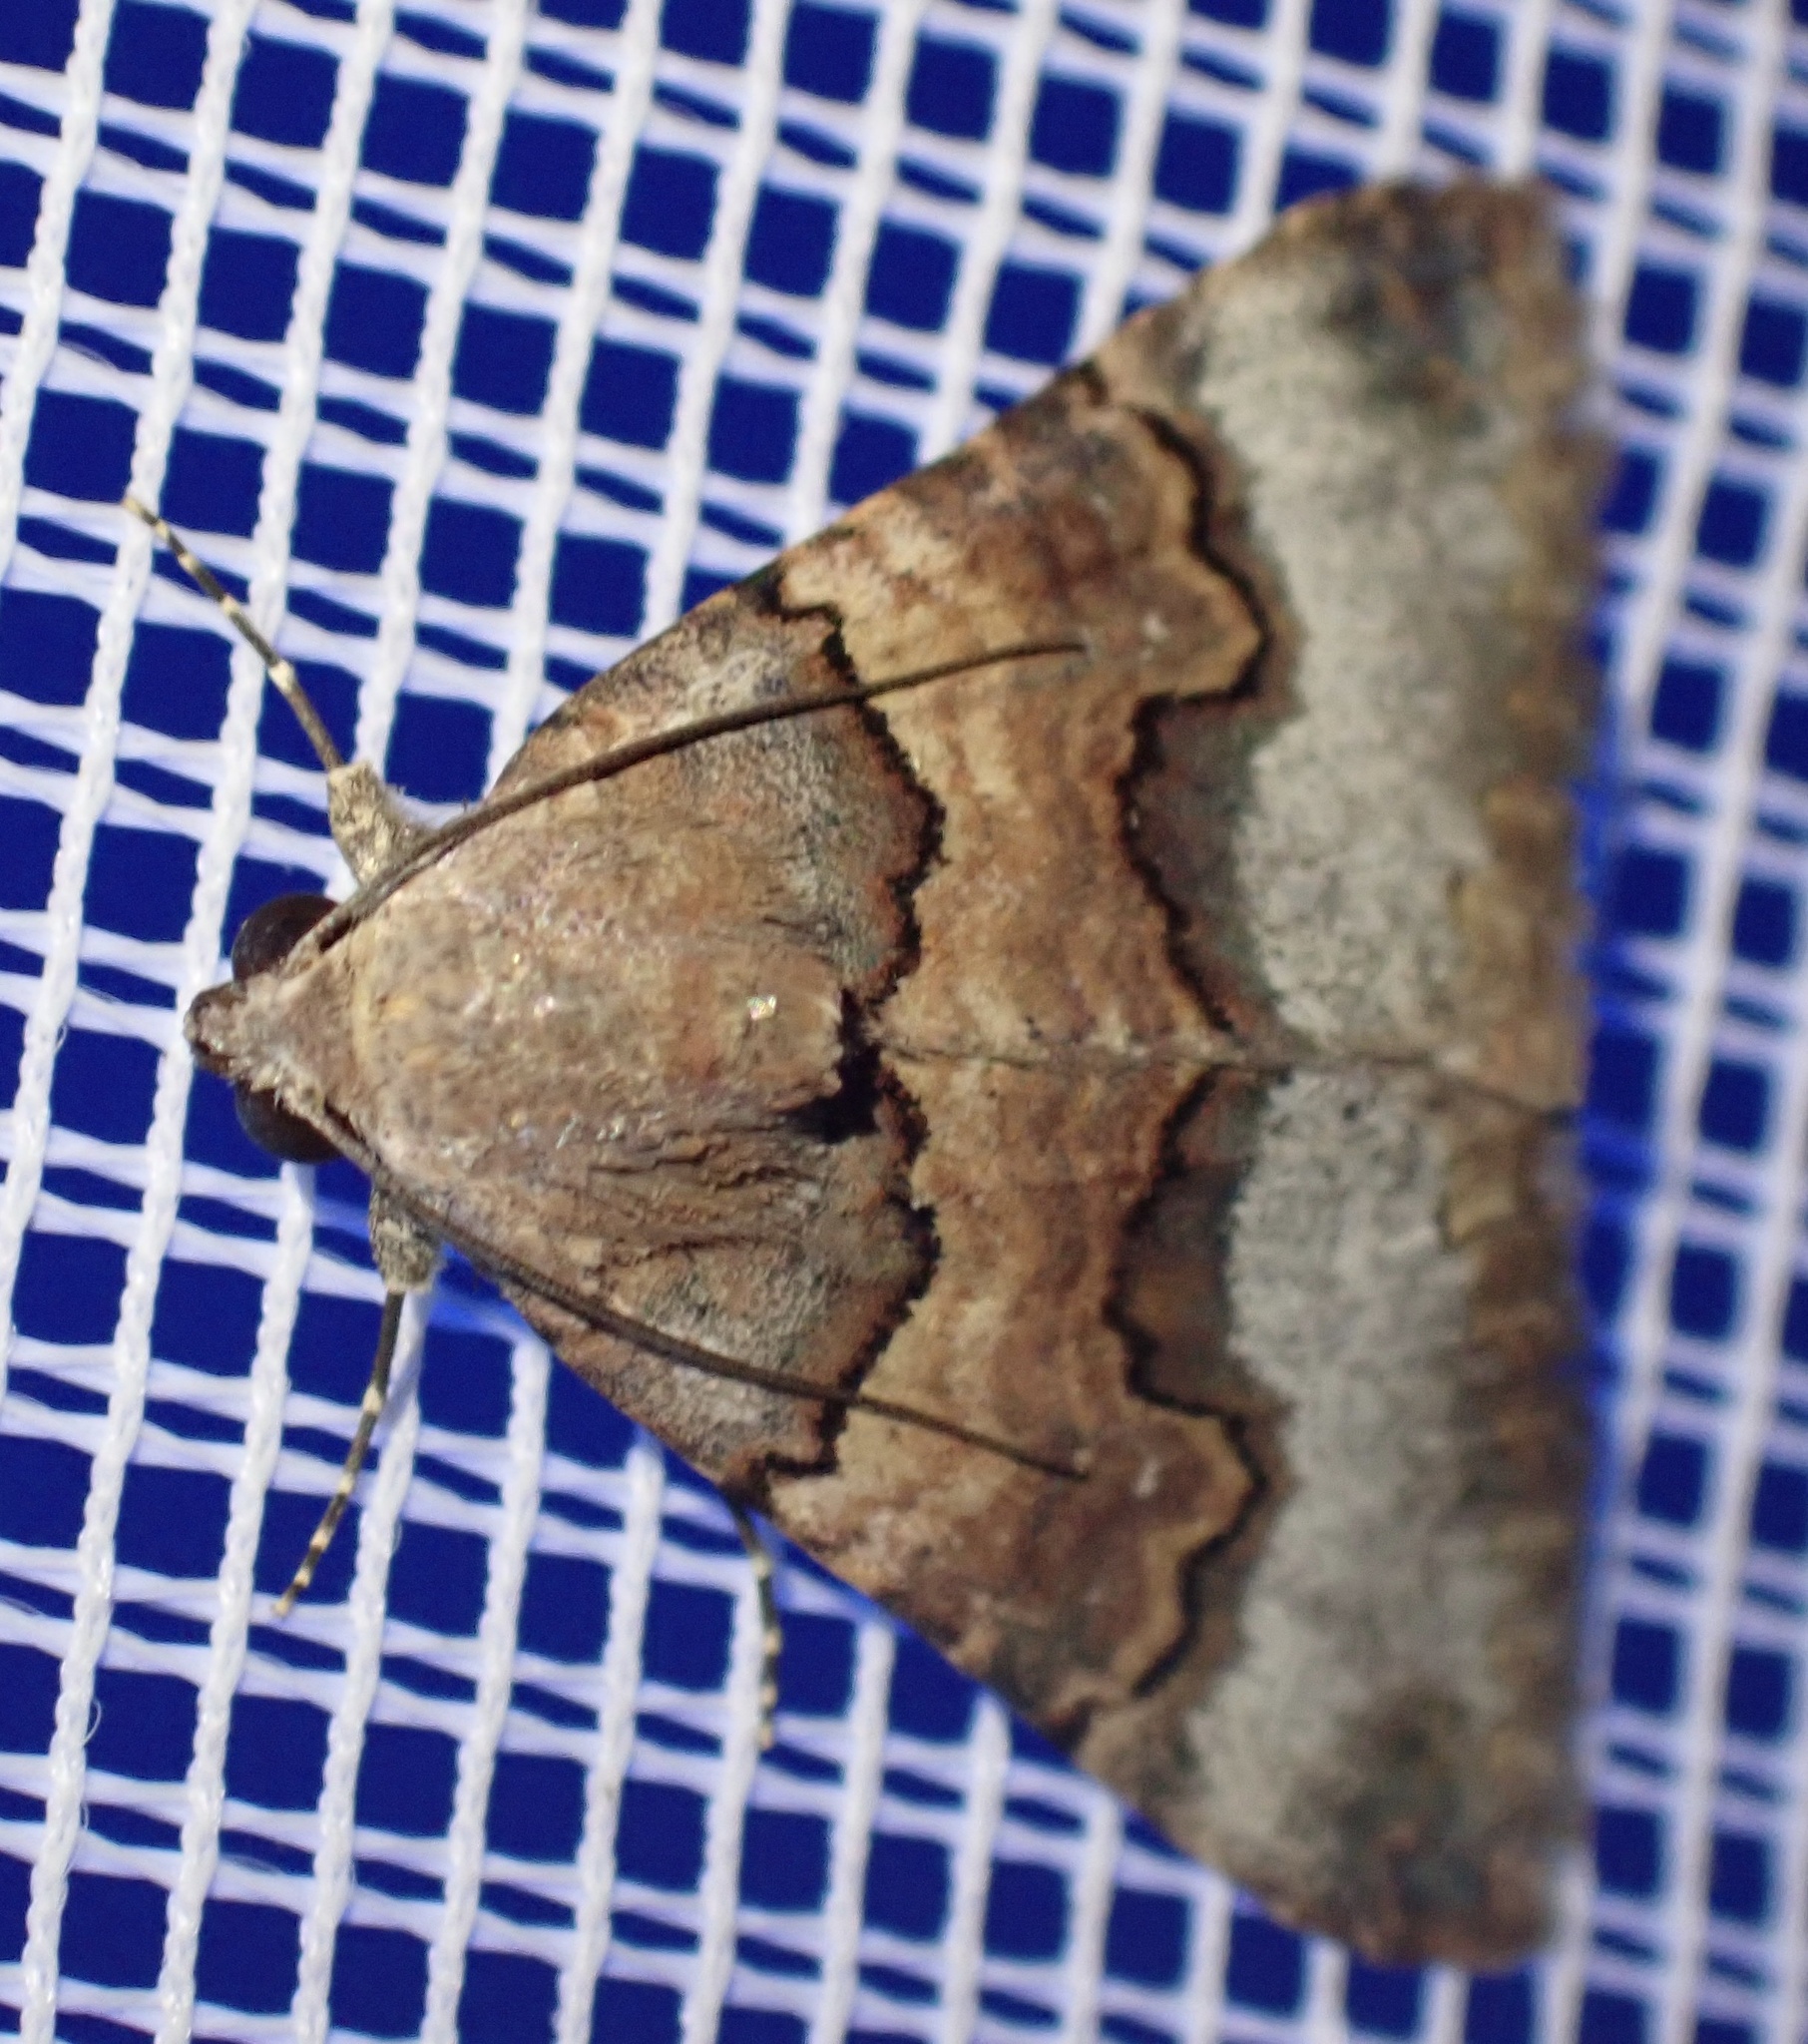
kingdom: Animalia
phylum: Arthropoda
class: Insecta
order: Lepidoptera
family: Erebidae
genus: Tytroca
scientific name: Tytroca dispar
